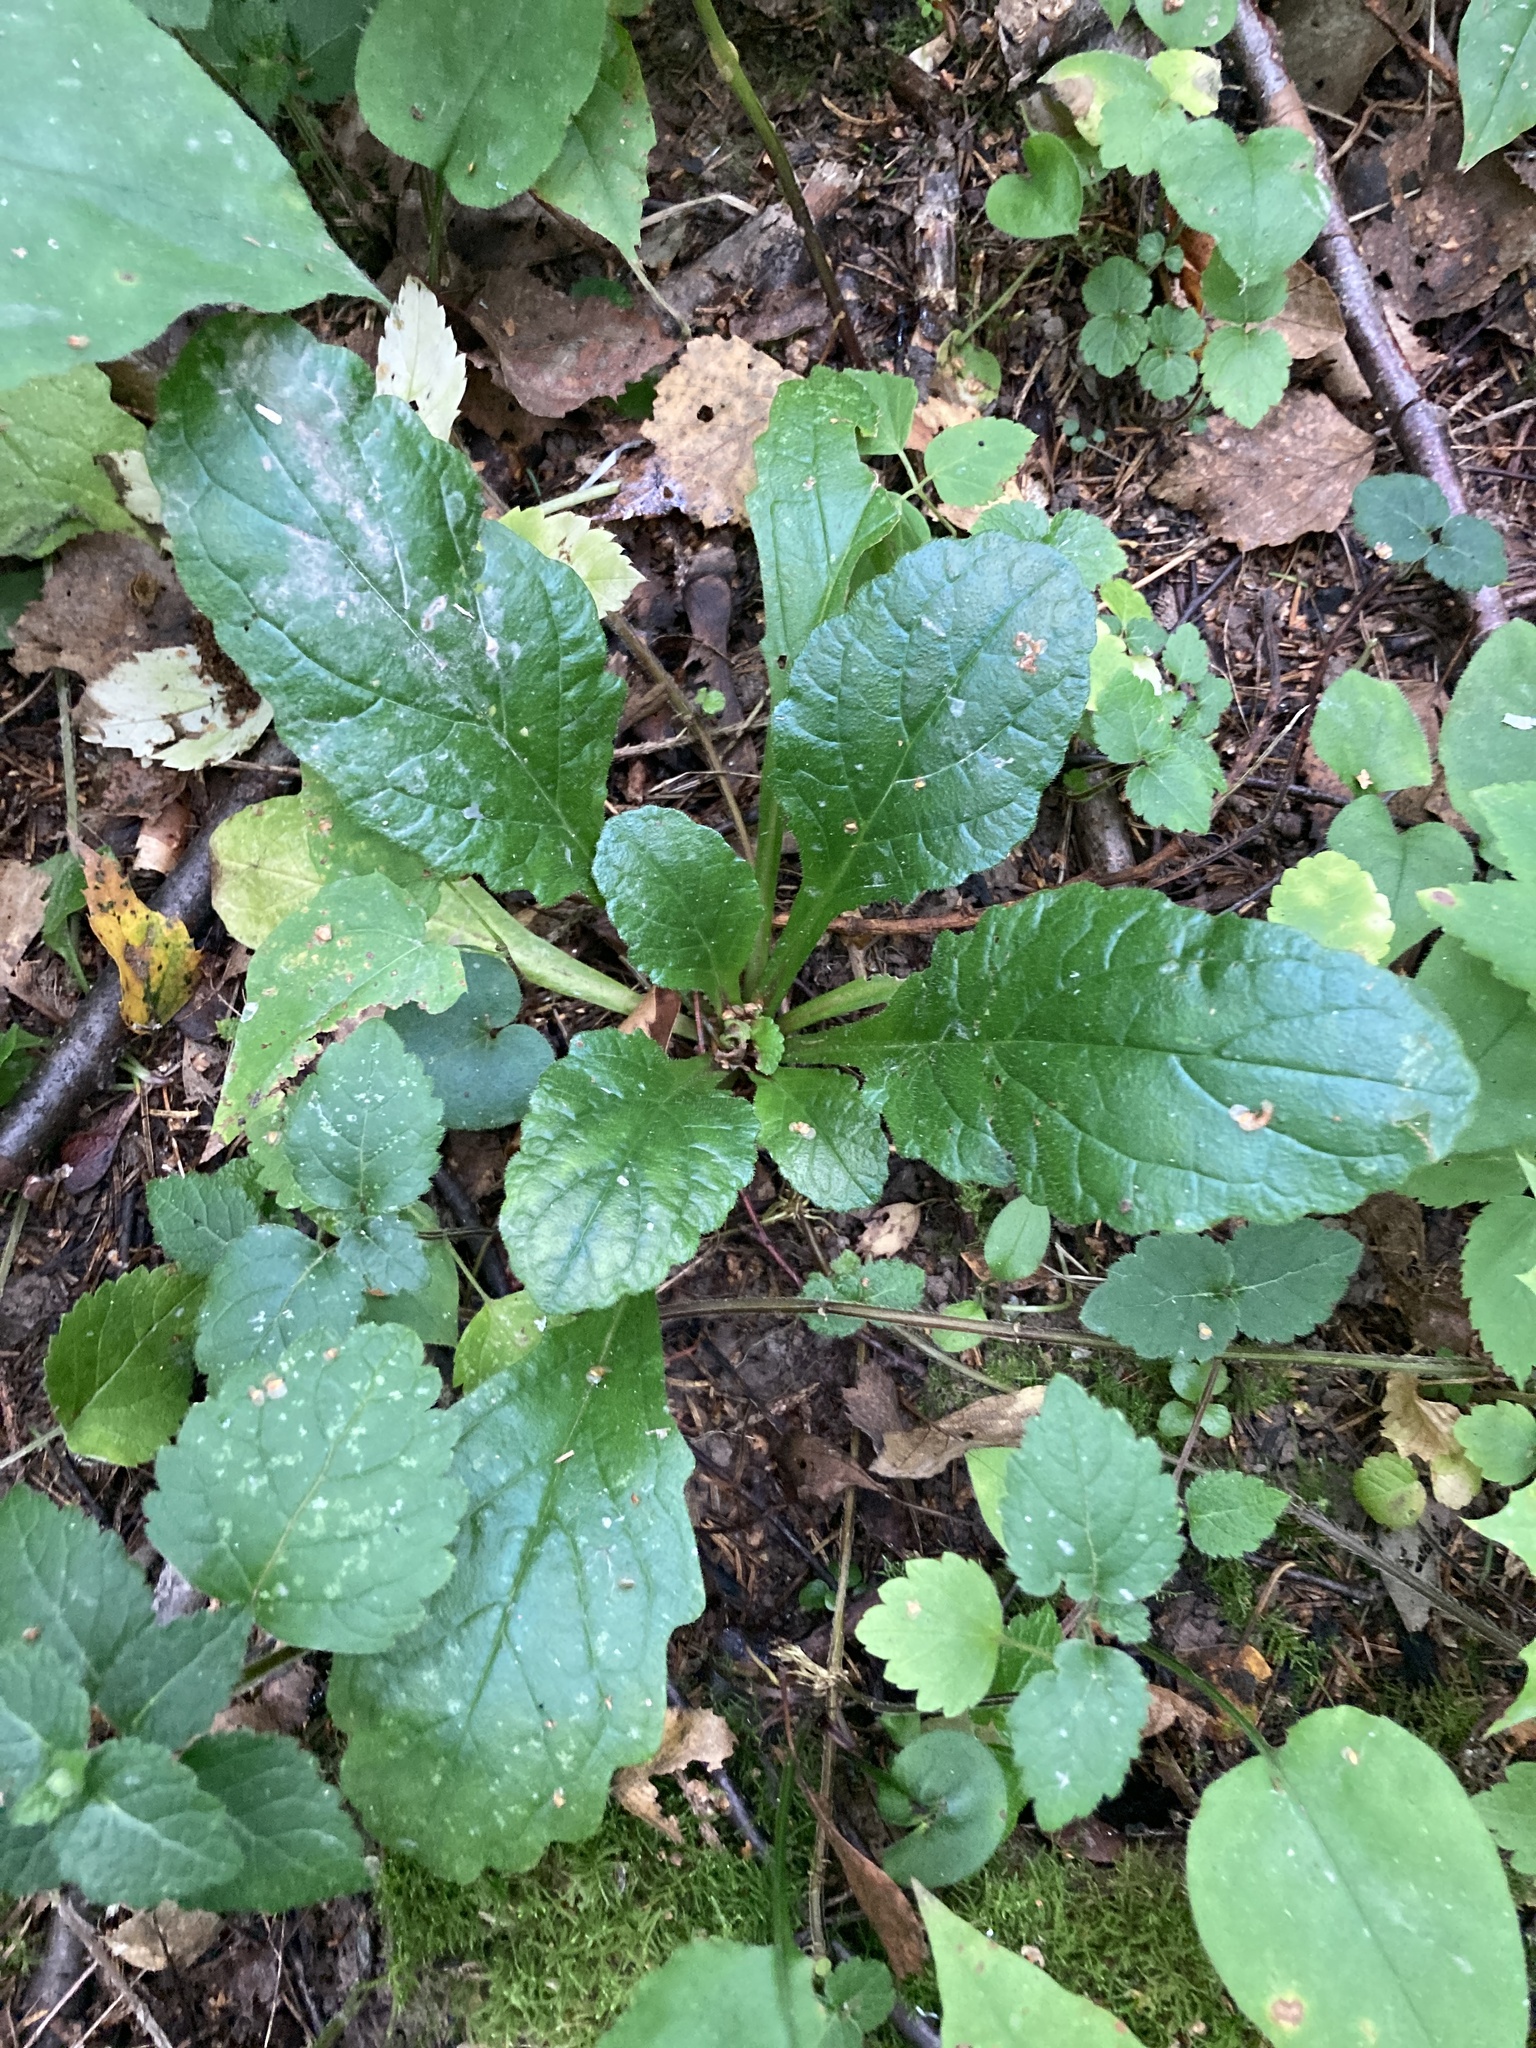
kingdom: Plantae
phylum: Tracheophyta
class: Magnoliopsida
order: Lamiales
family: Lamiaceae
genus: Ajuga
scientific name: Ajuga reptans
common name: Bugle
